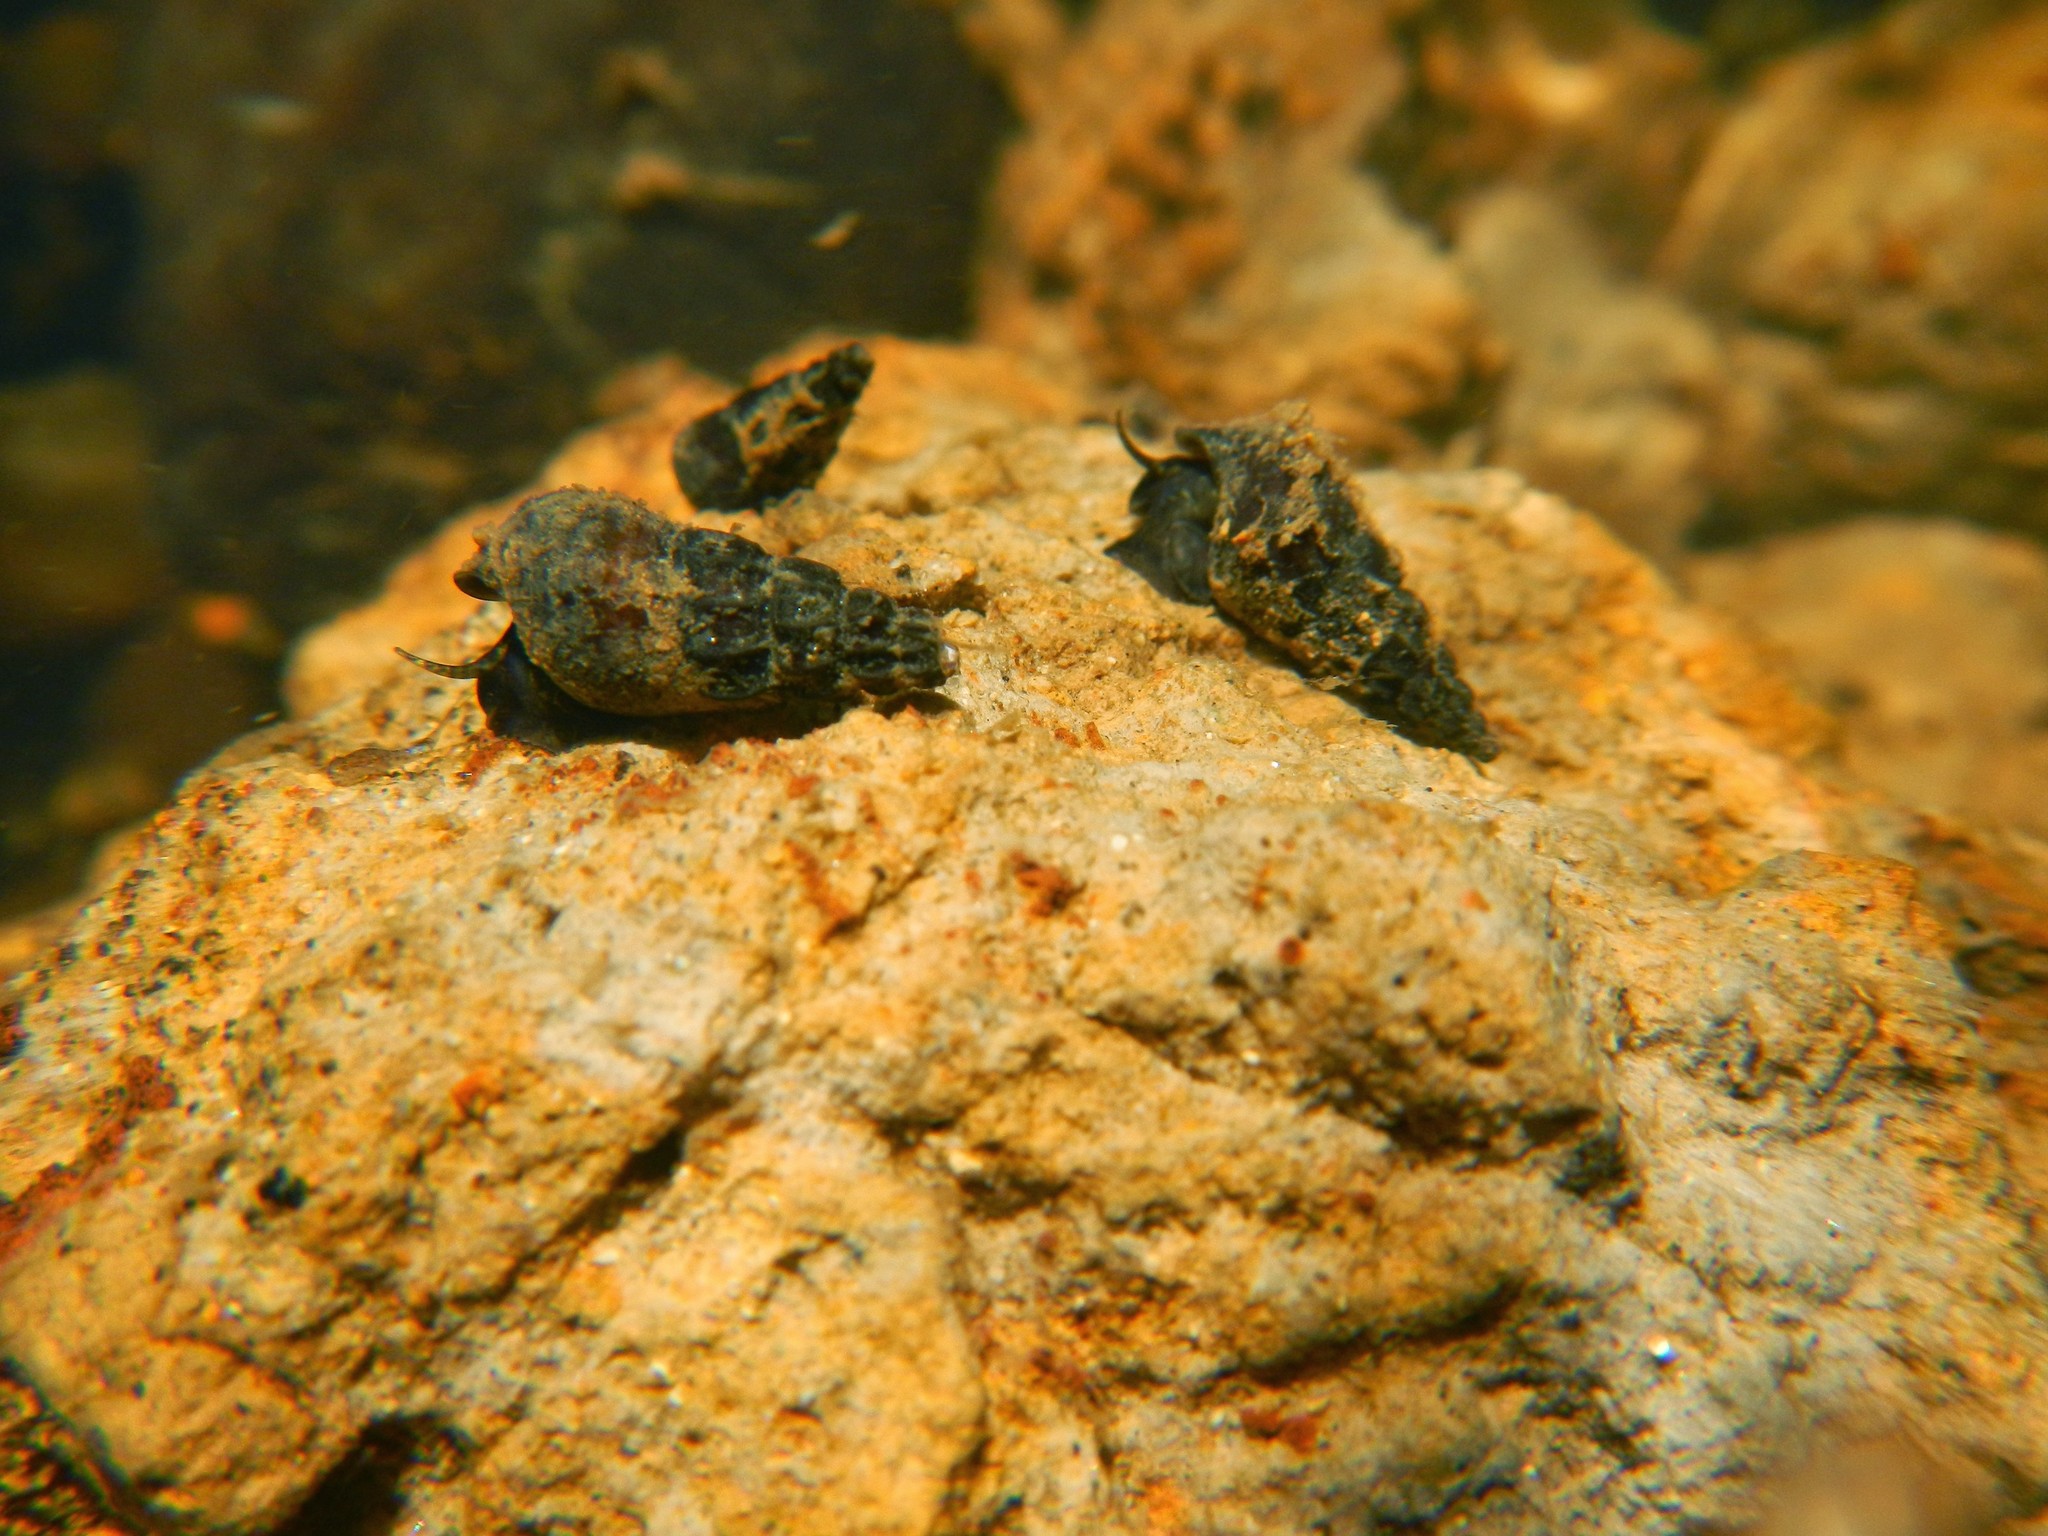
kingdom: Animalia
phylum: Mollusca
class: Gastropoda
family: Semisulcospiridae
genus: Juga
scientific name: Juga plicifera
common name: Pleated juga
